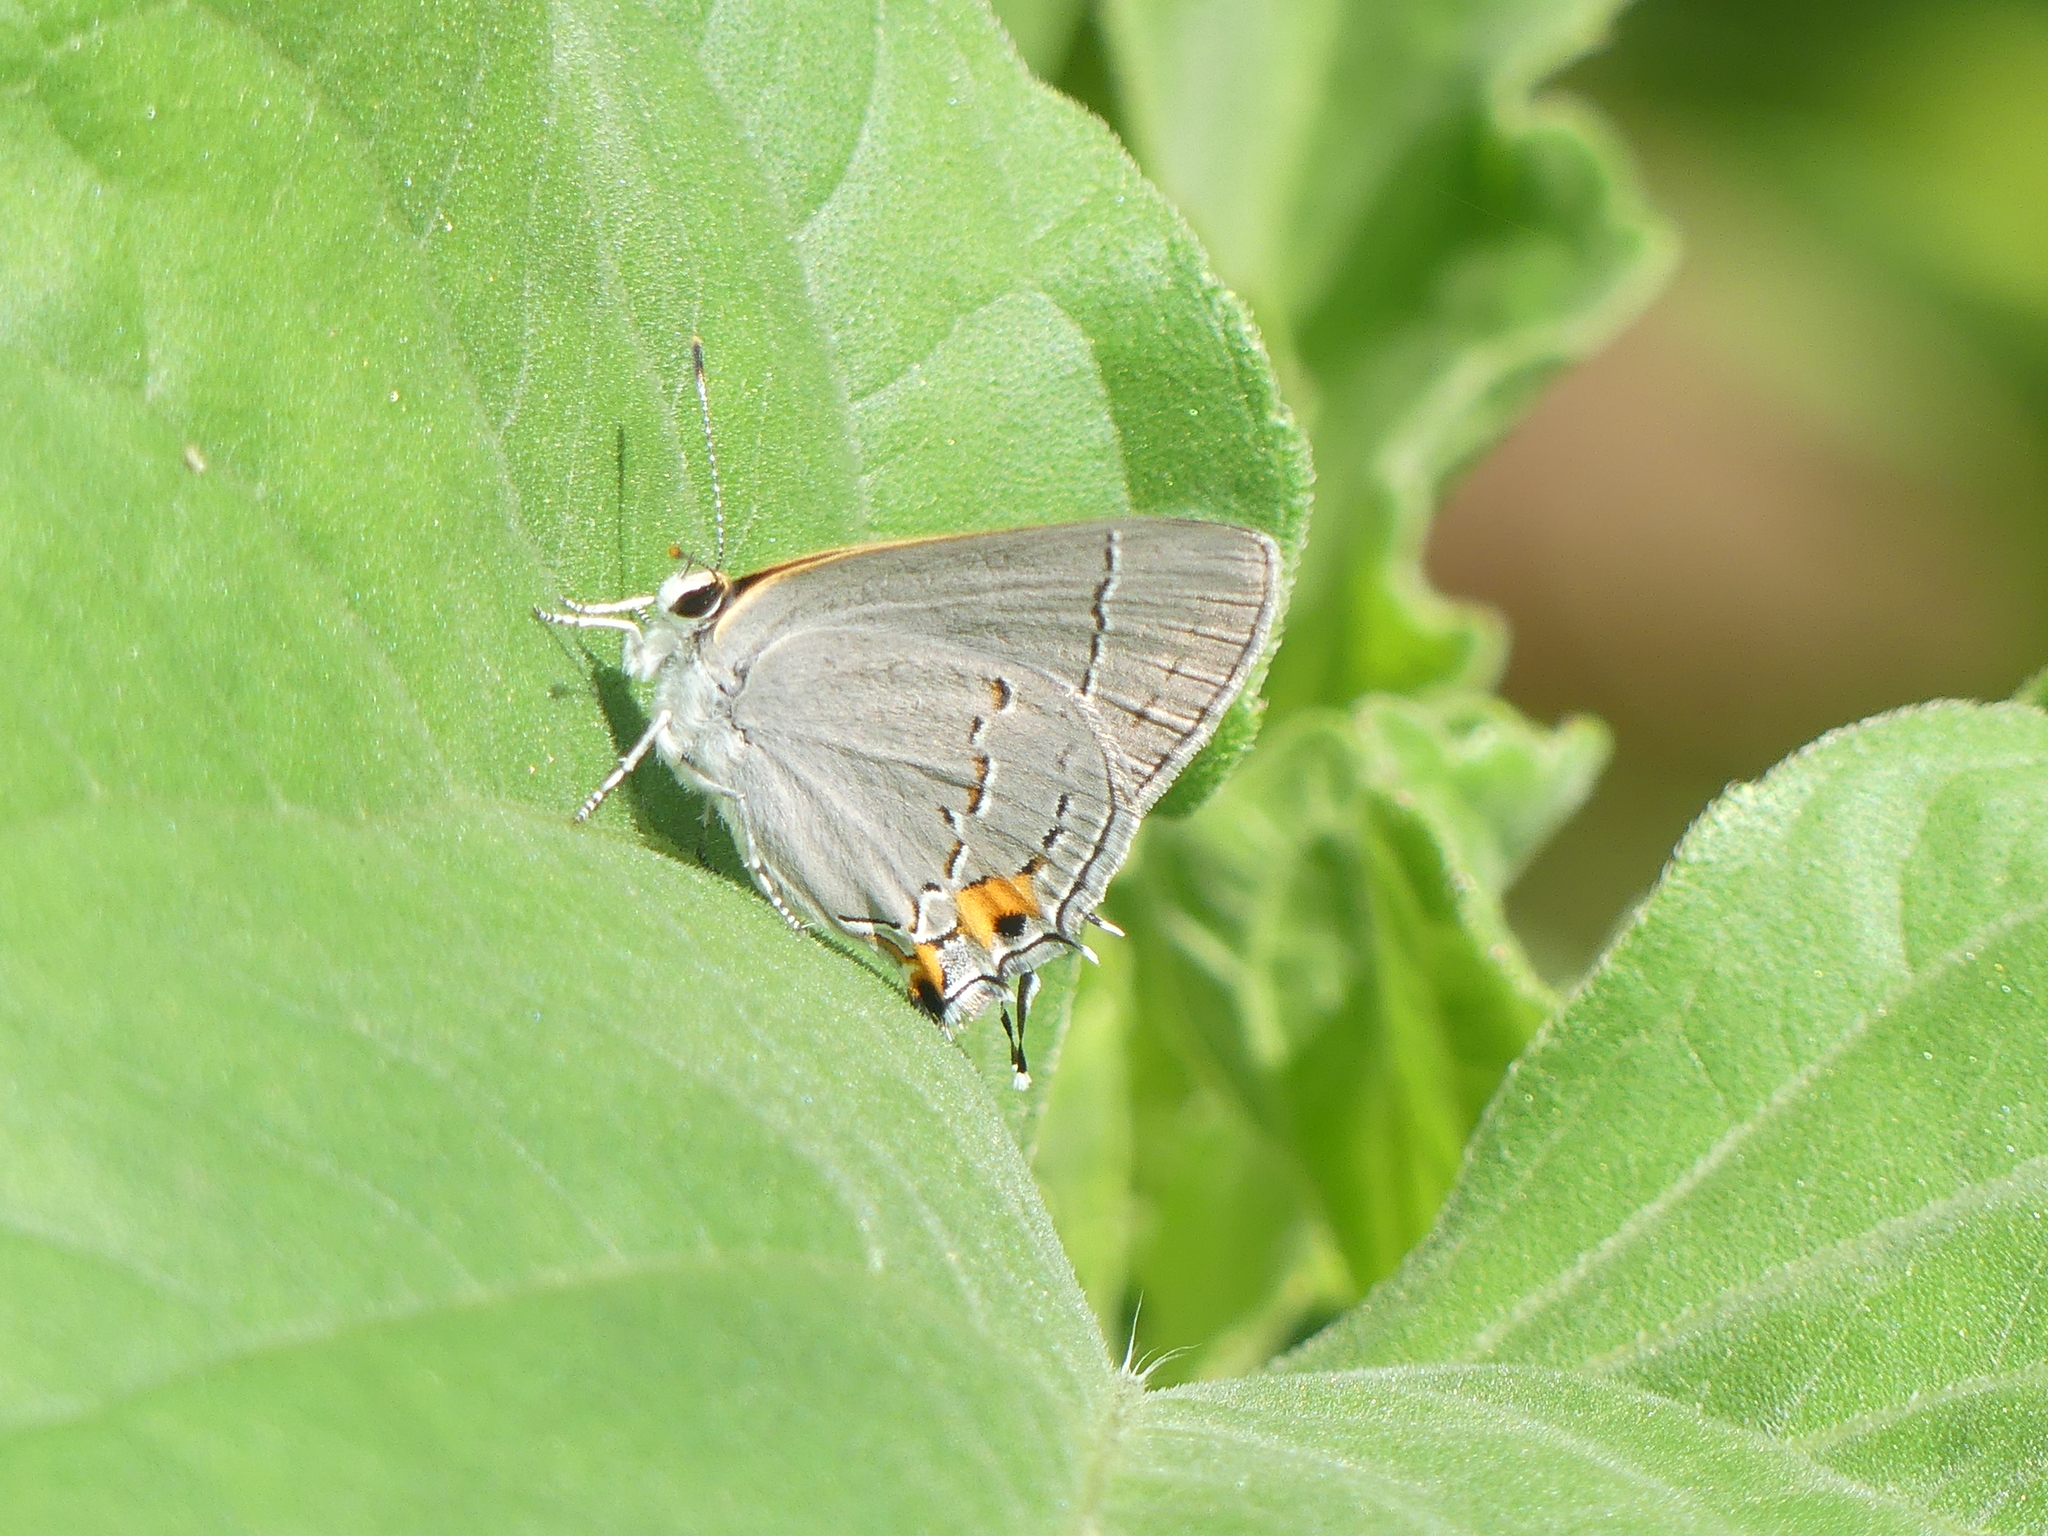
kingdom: Animalia
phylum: Arthropoda
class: Insecta
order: Lepidoptera
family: Lycaenidae
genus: Strymon
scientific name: Strymon melinus
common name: Gray hairstreak
